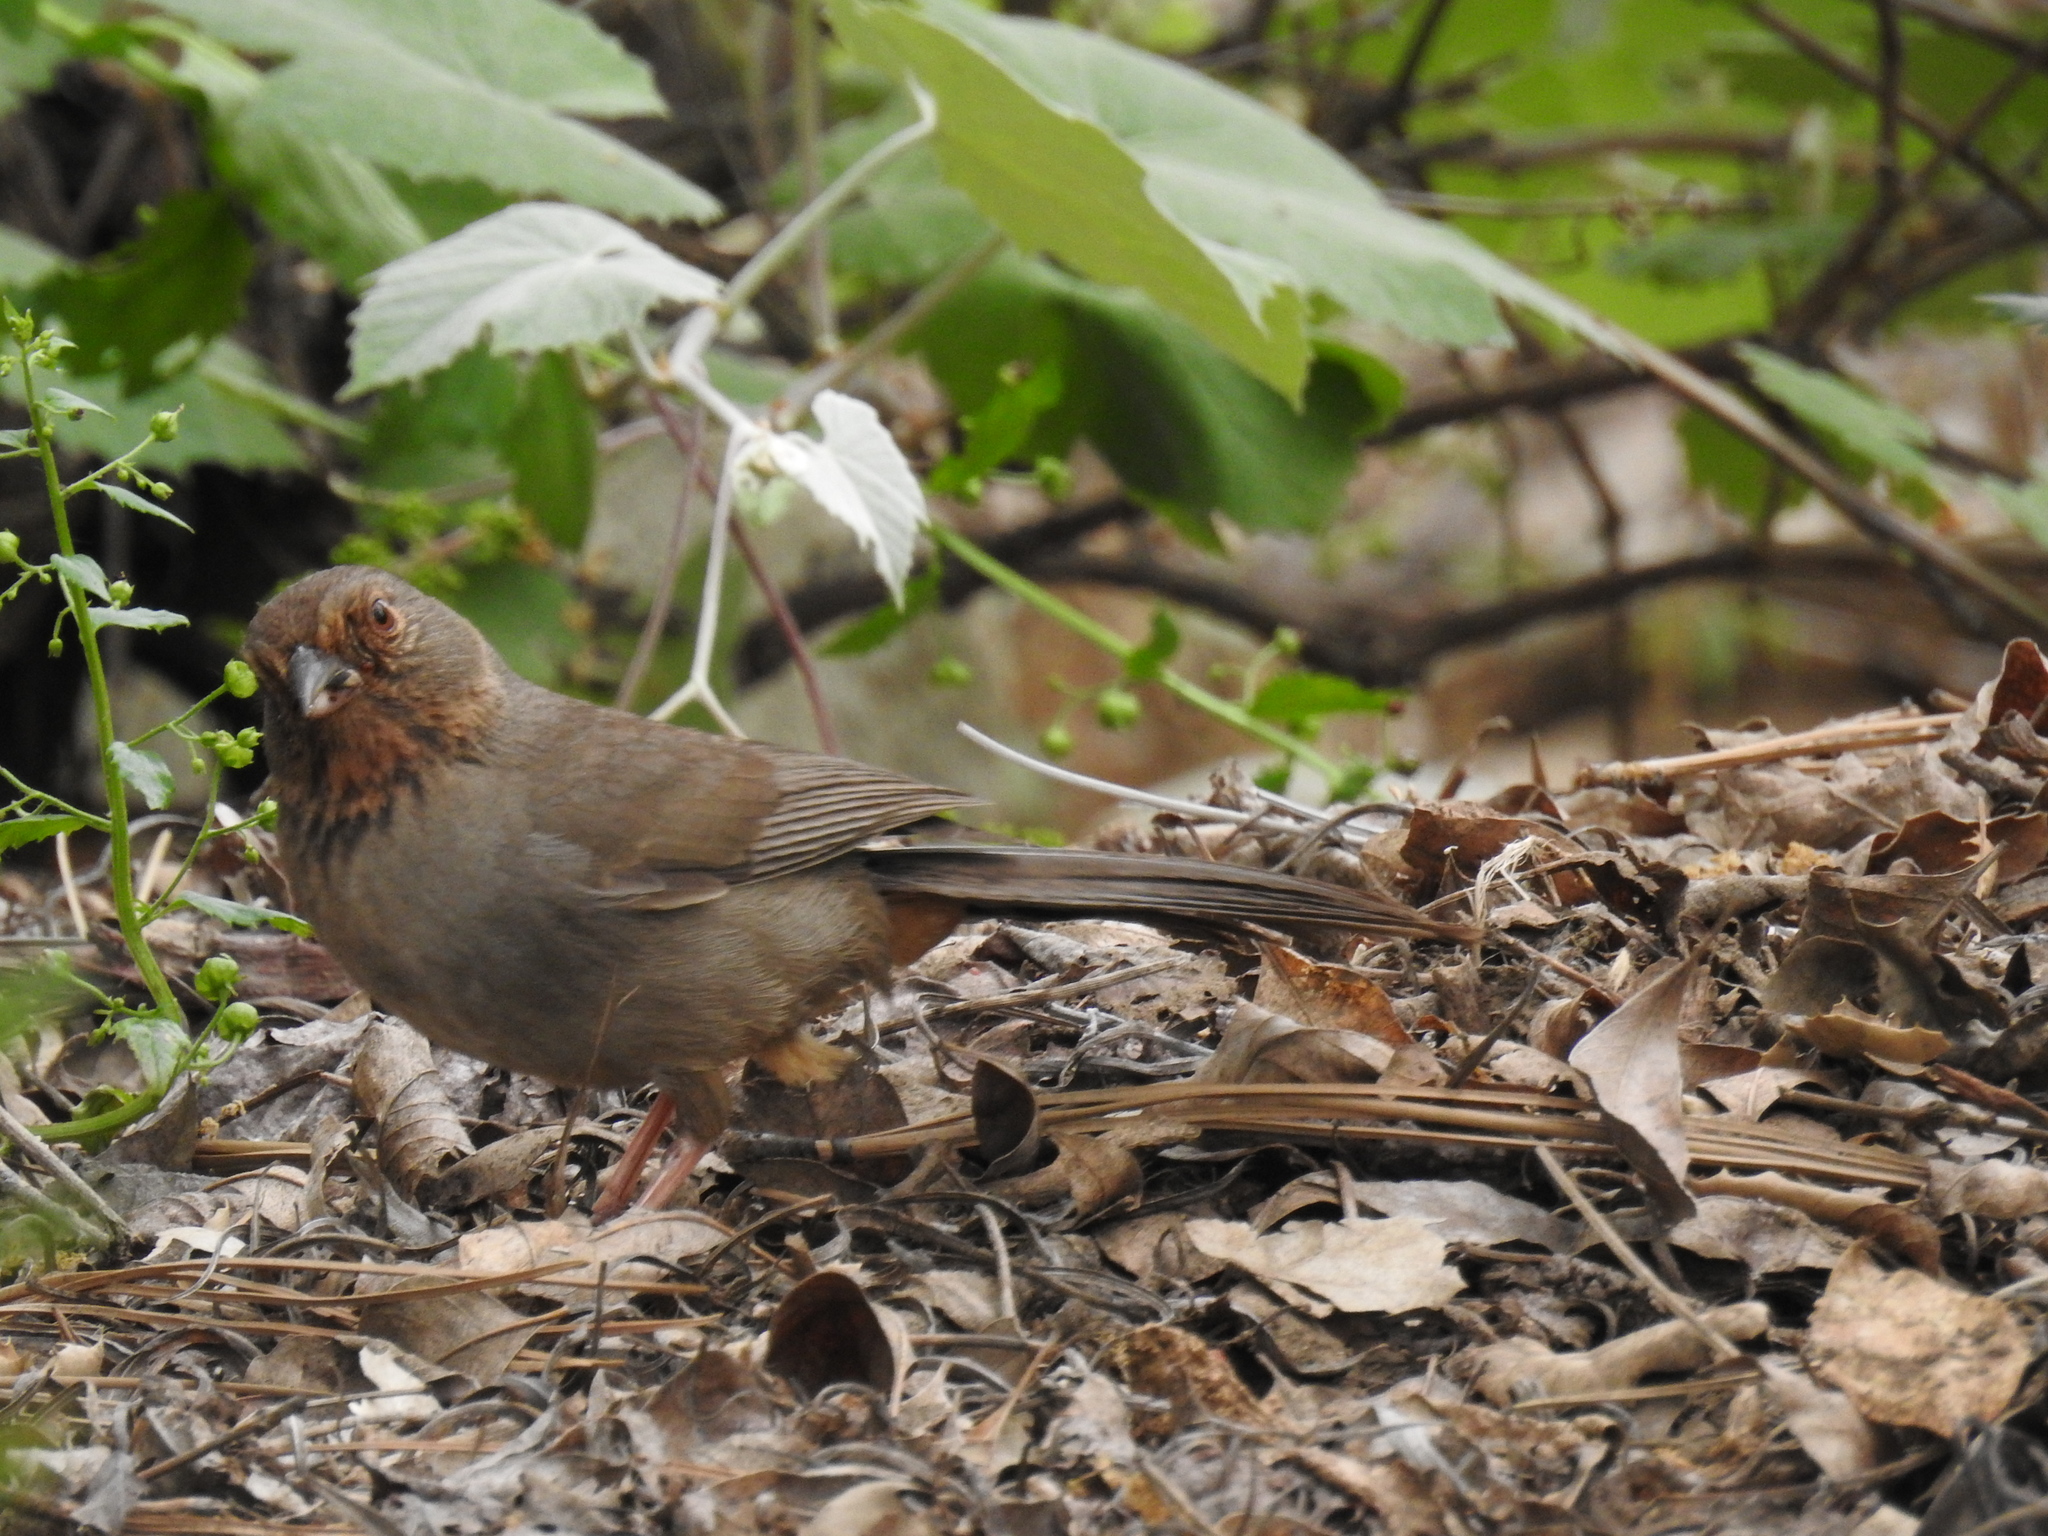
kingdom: Animalia
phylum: Chordata
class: Aves
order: Passeriformes
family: Passerellidae
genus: Melozone
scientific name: Melozone crissalis
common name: California towhee
